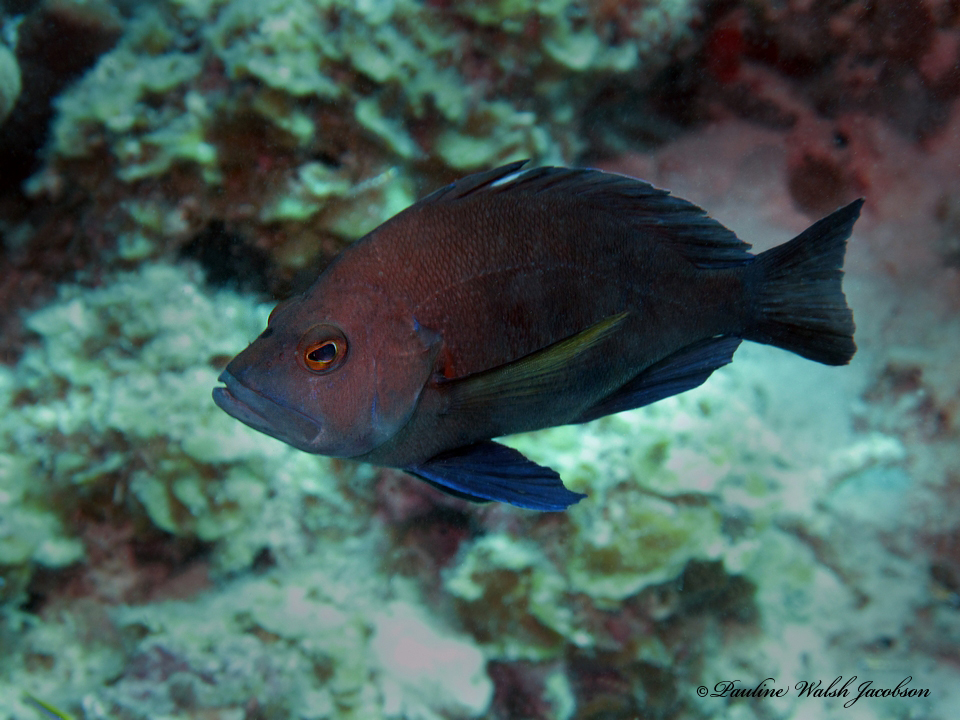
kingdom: Animalia
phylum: Chordata
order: Perciformes
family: Serranidae
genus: Hypoplectrus
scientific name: Hypoplectrus chlorurus
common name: Yellowtail hamlet
